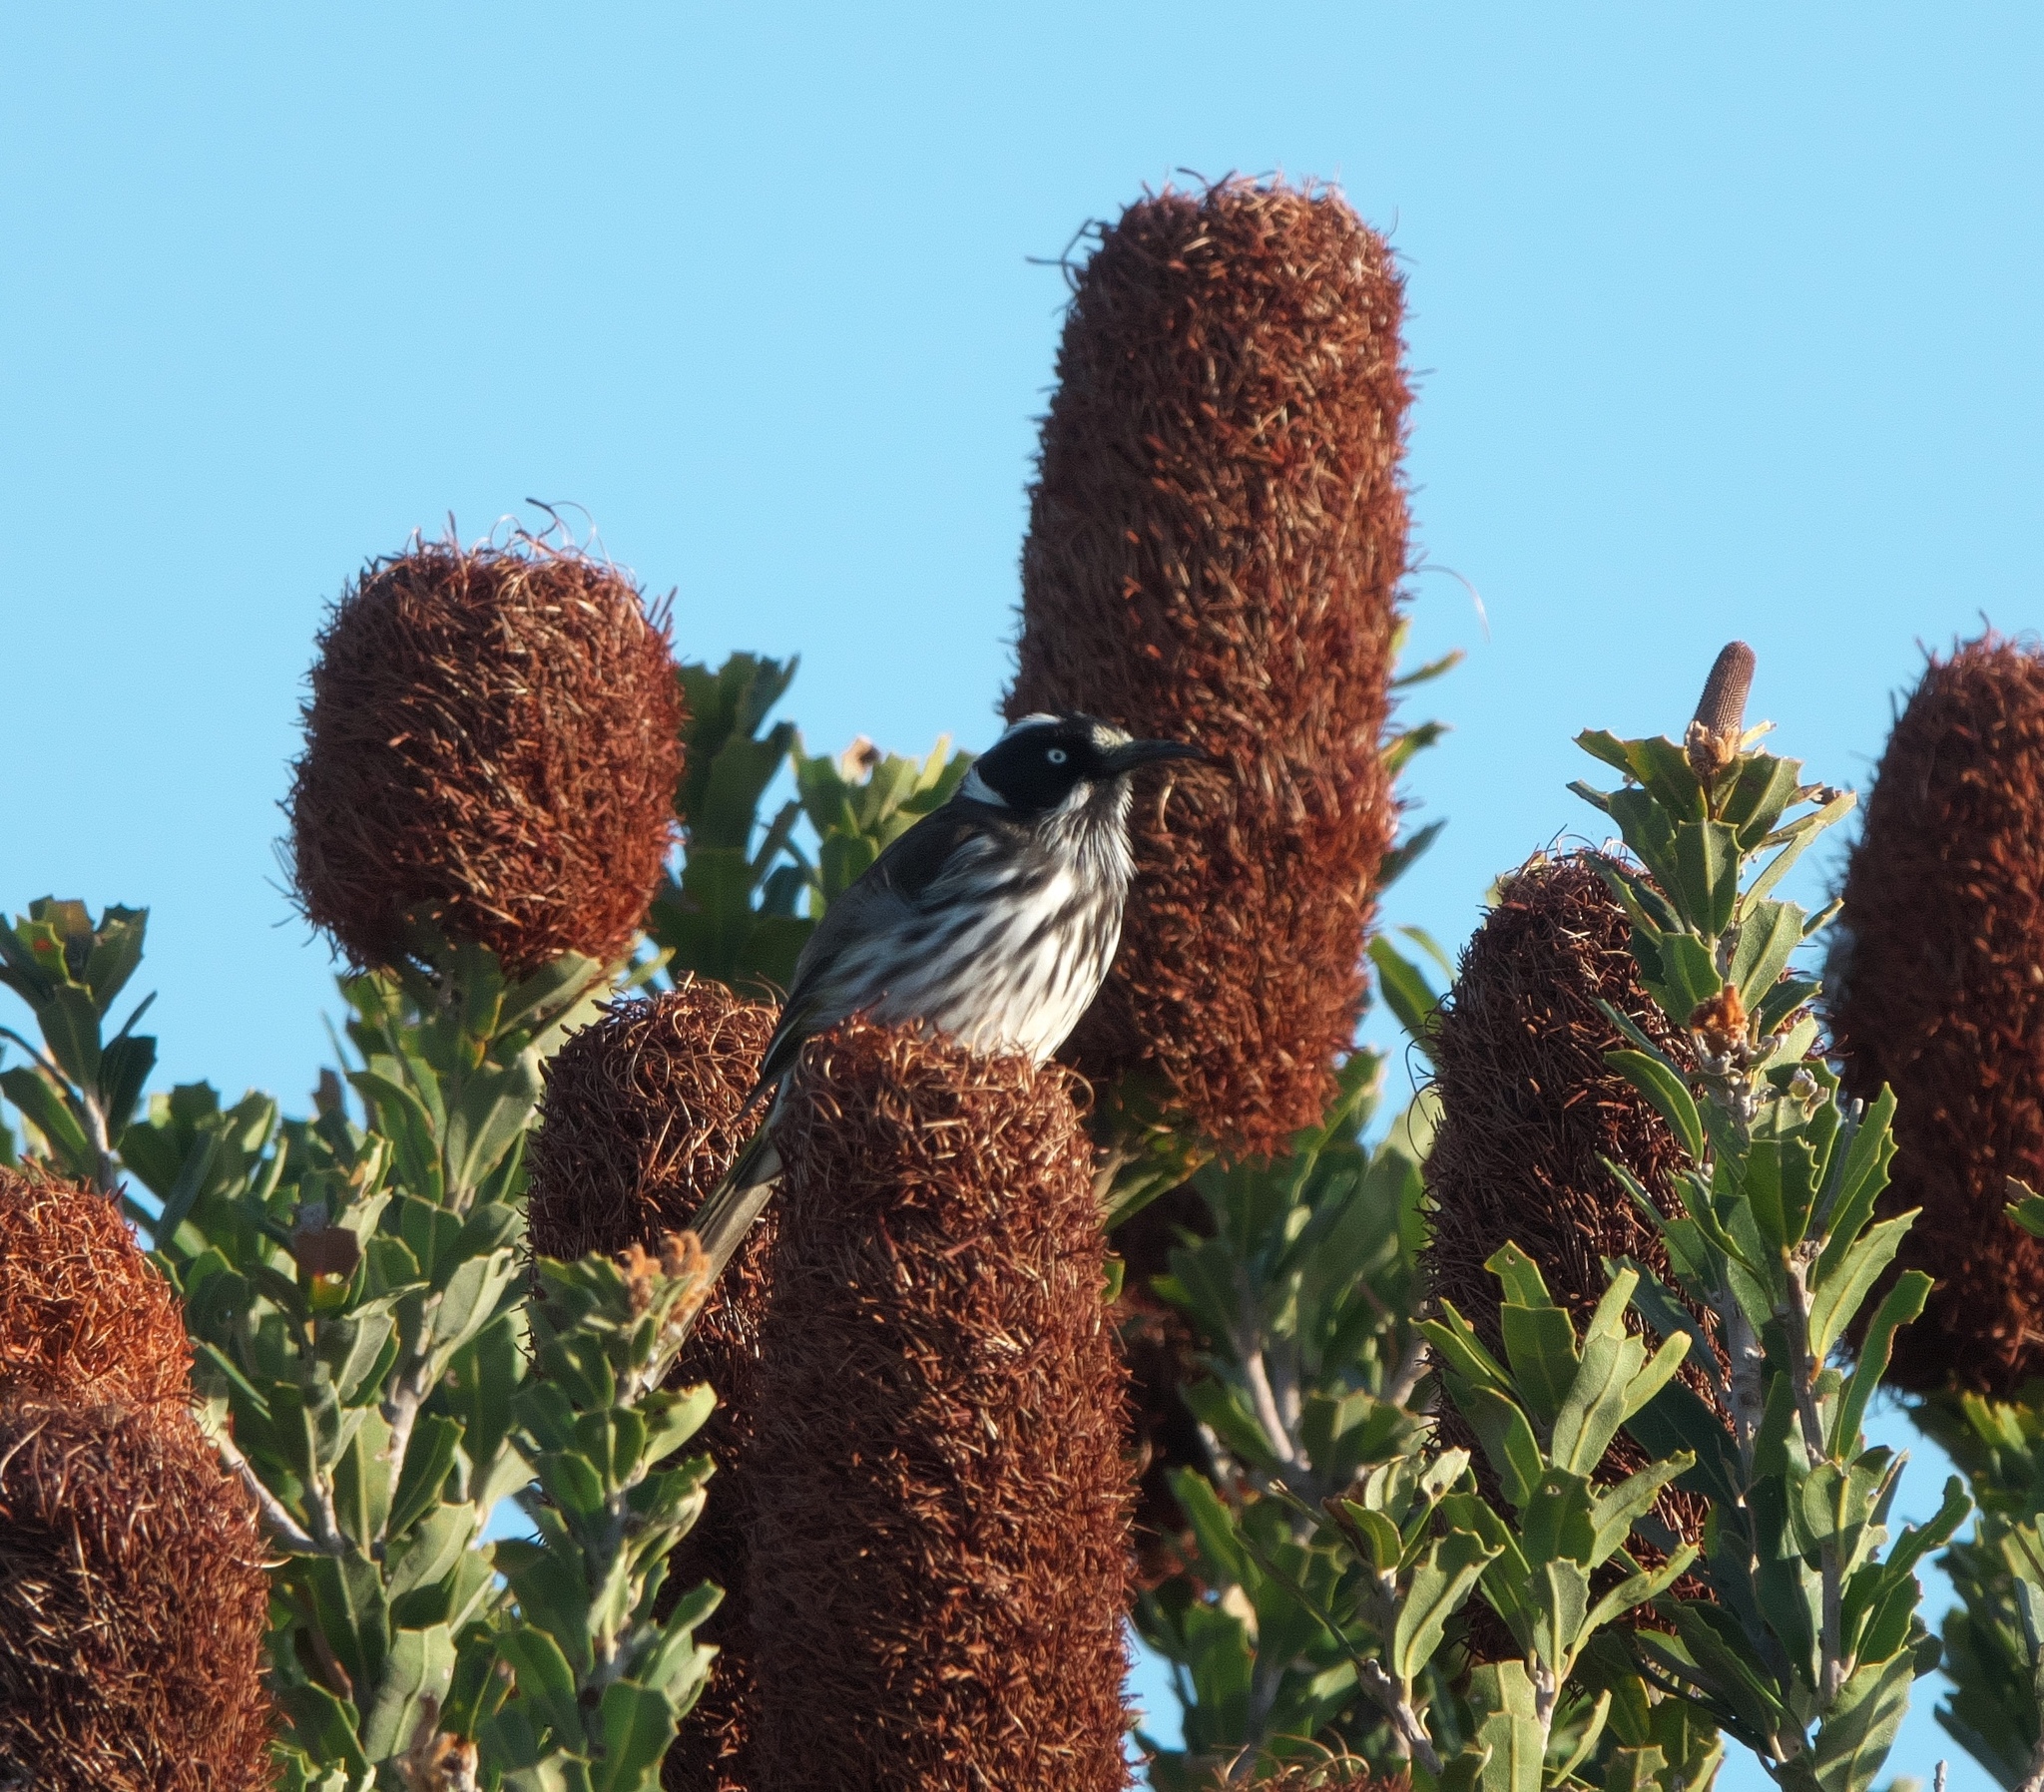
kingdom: Animalia
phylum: Chordata
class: Aves
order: Passeriformes
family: Meliphagidae
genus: Phylidonyris
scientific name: Phylidonyris novaehollandiae
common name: New holland honeyeater
